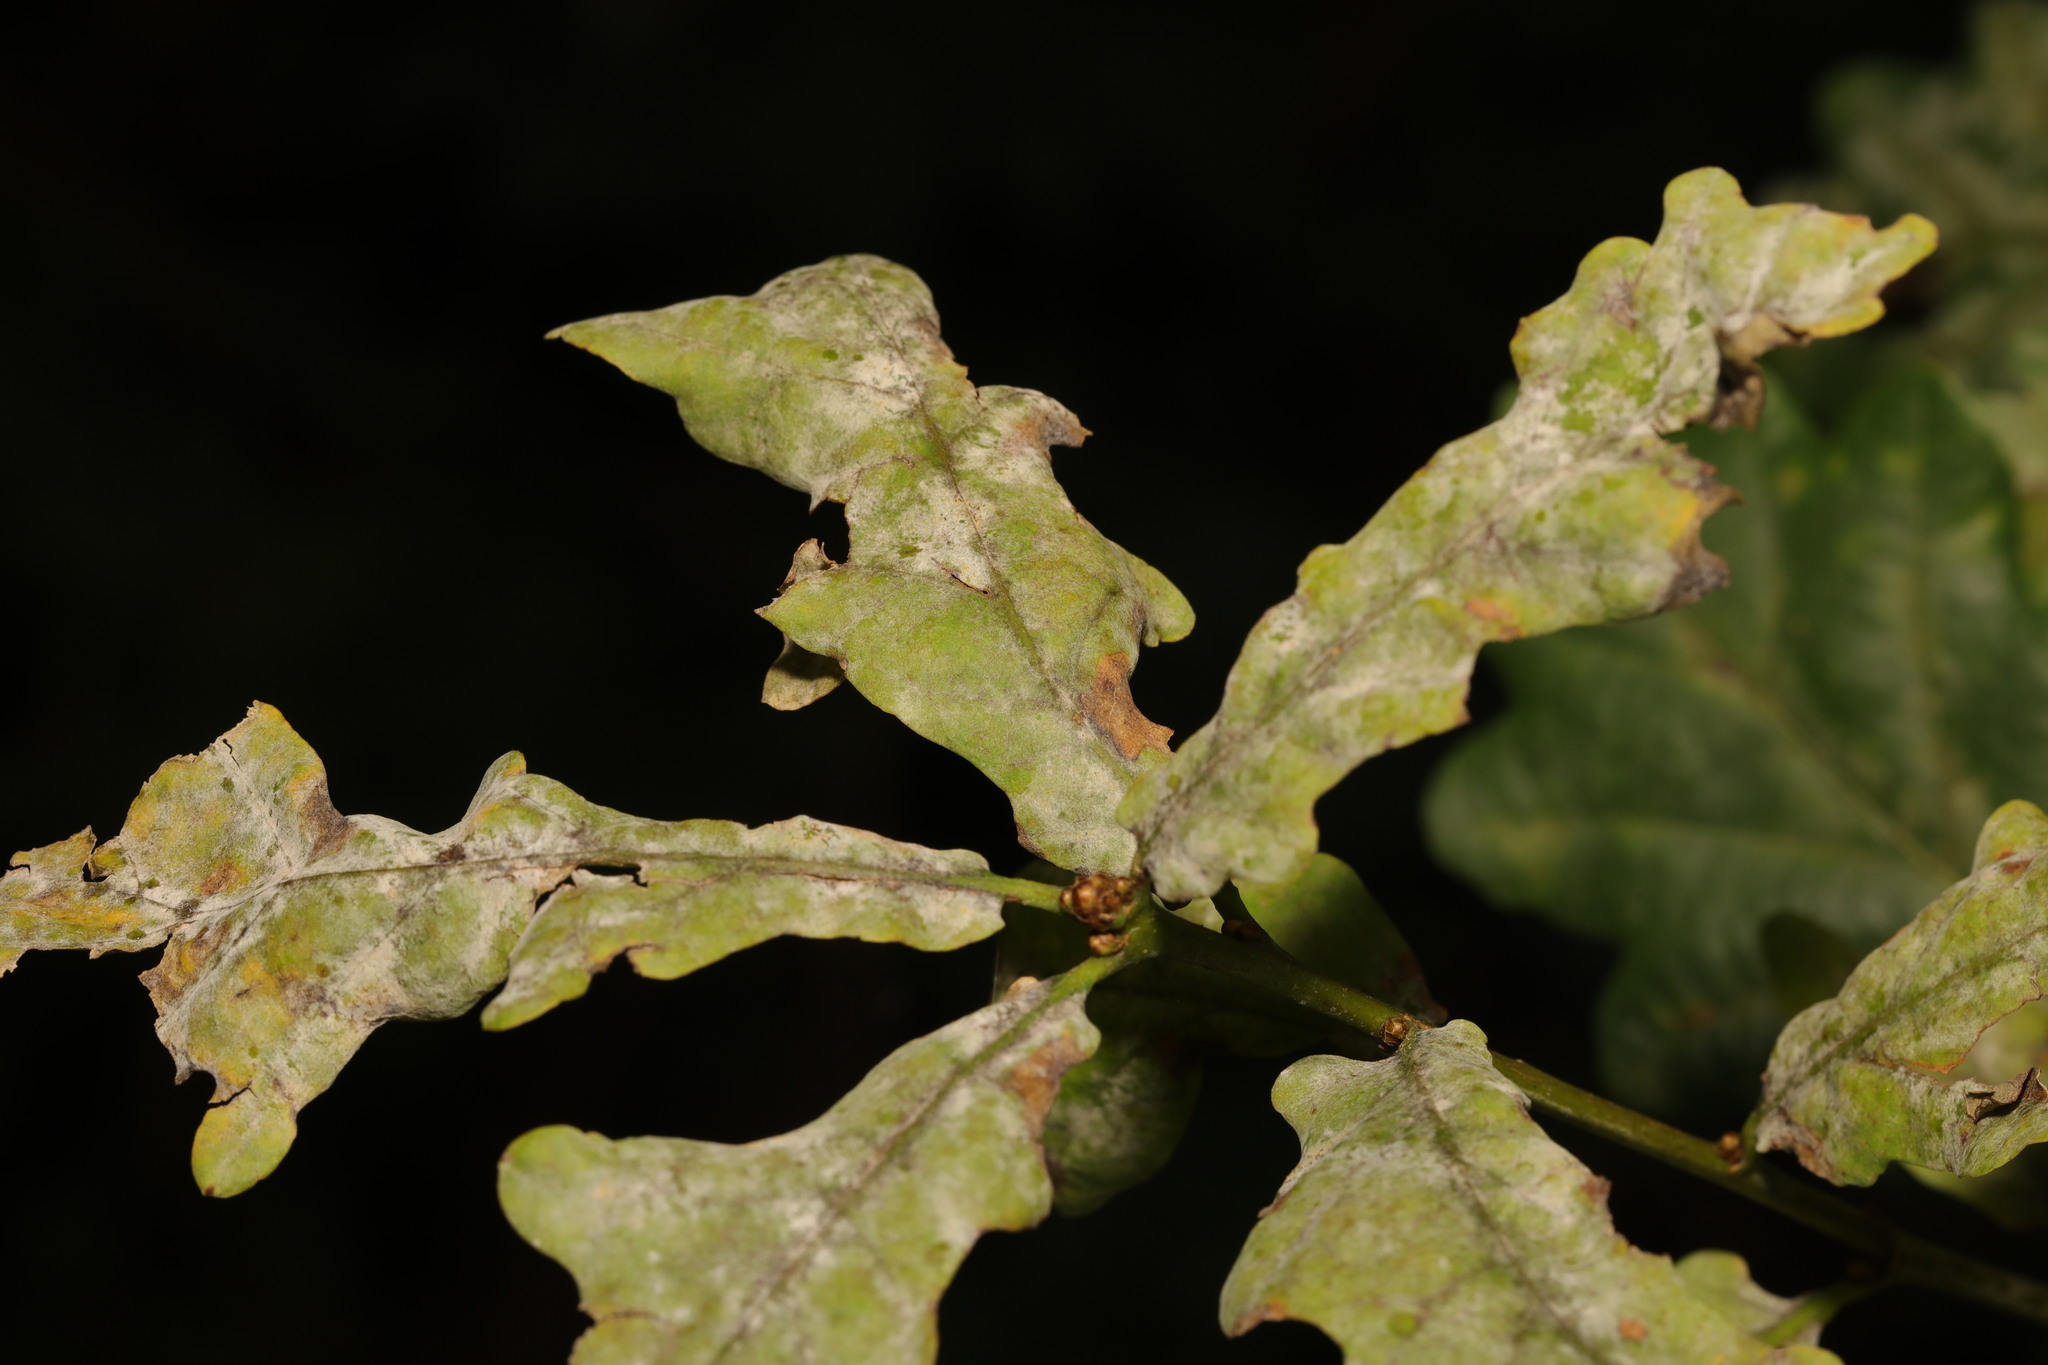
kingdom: Fungi
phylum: Ascomycota
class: Leotiomycetes
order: Helotiales
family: Erysiphaceae
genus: Erysiphe
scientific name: Erysiphe alphitoides
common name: Oak mildew
